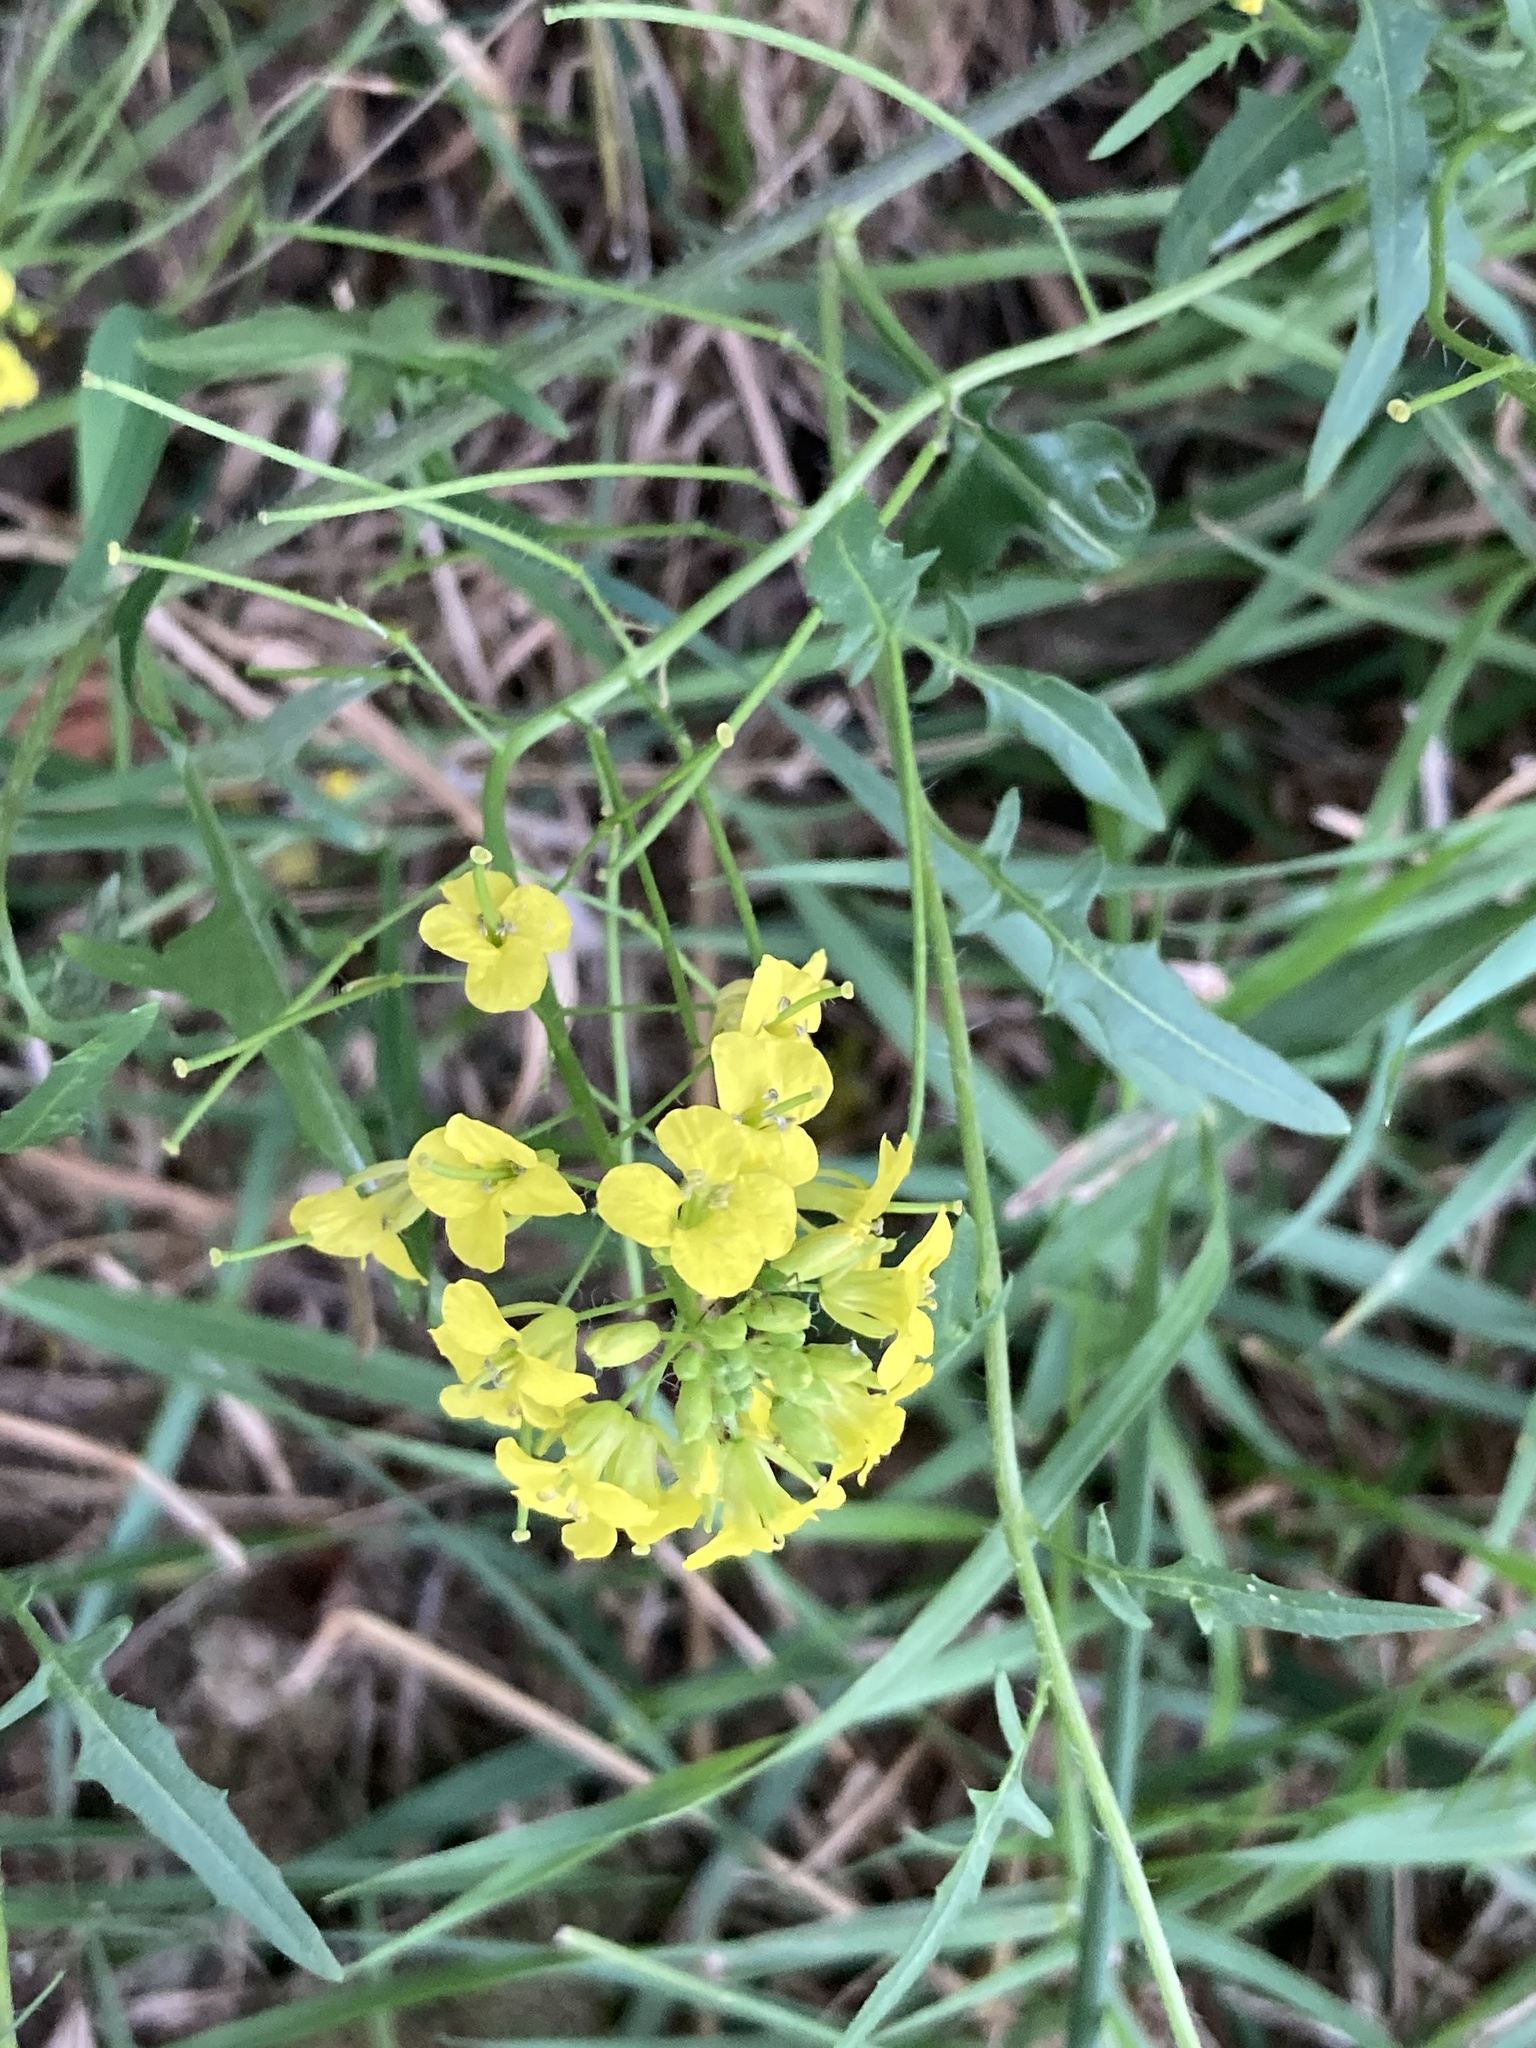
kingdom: Plantae
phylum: Tracheophyta
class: Magnoliopsida
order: Brassicales
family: Brassicaceae
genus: Sisymbrium
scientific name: Sisymbrium loeselii
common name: False london-rocket
